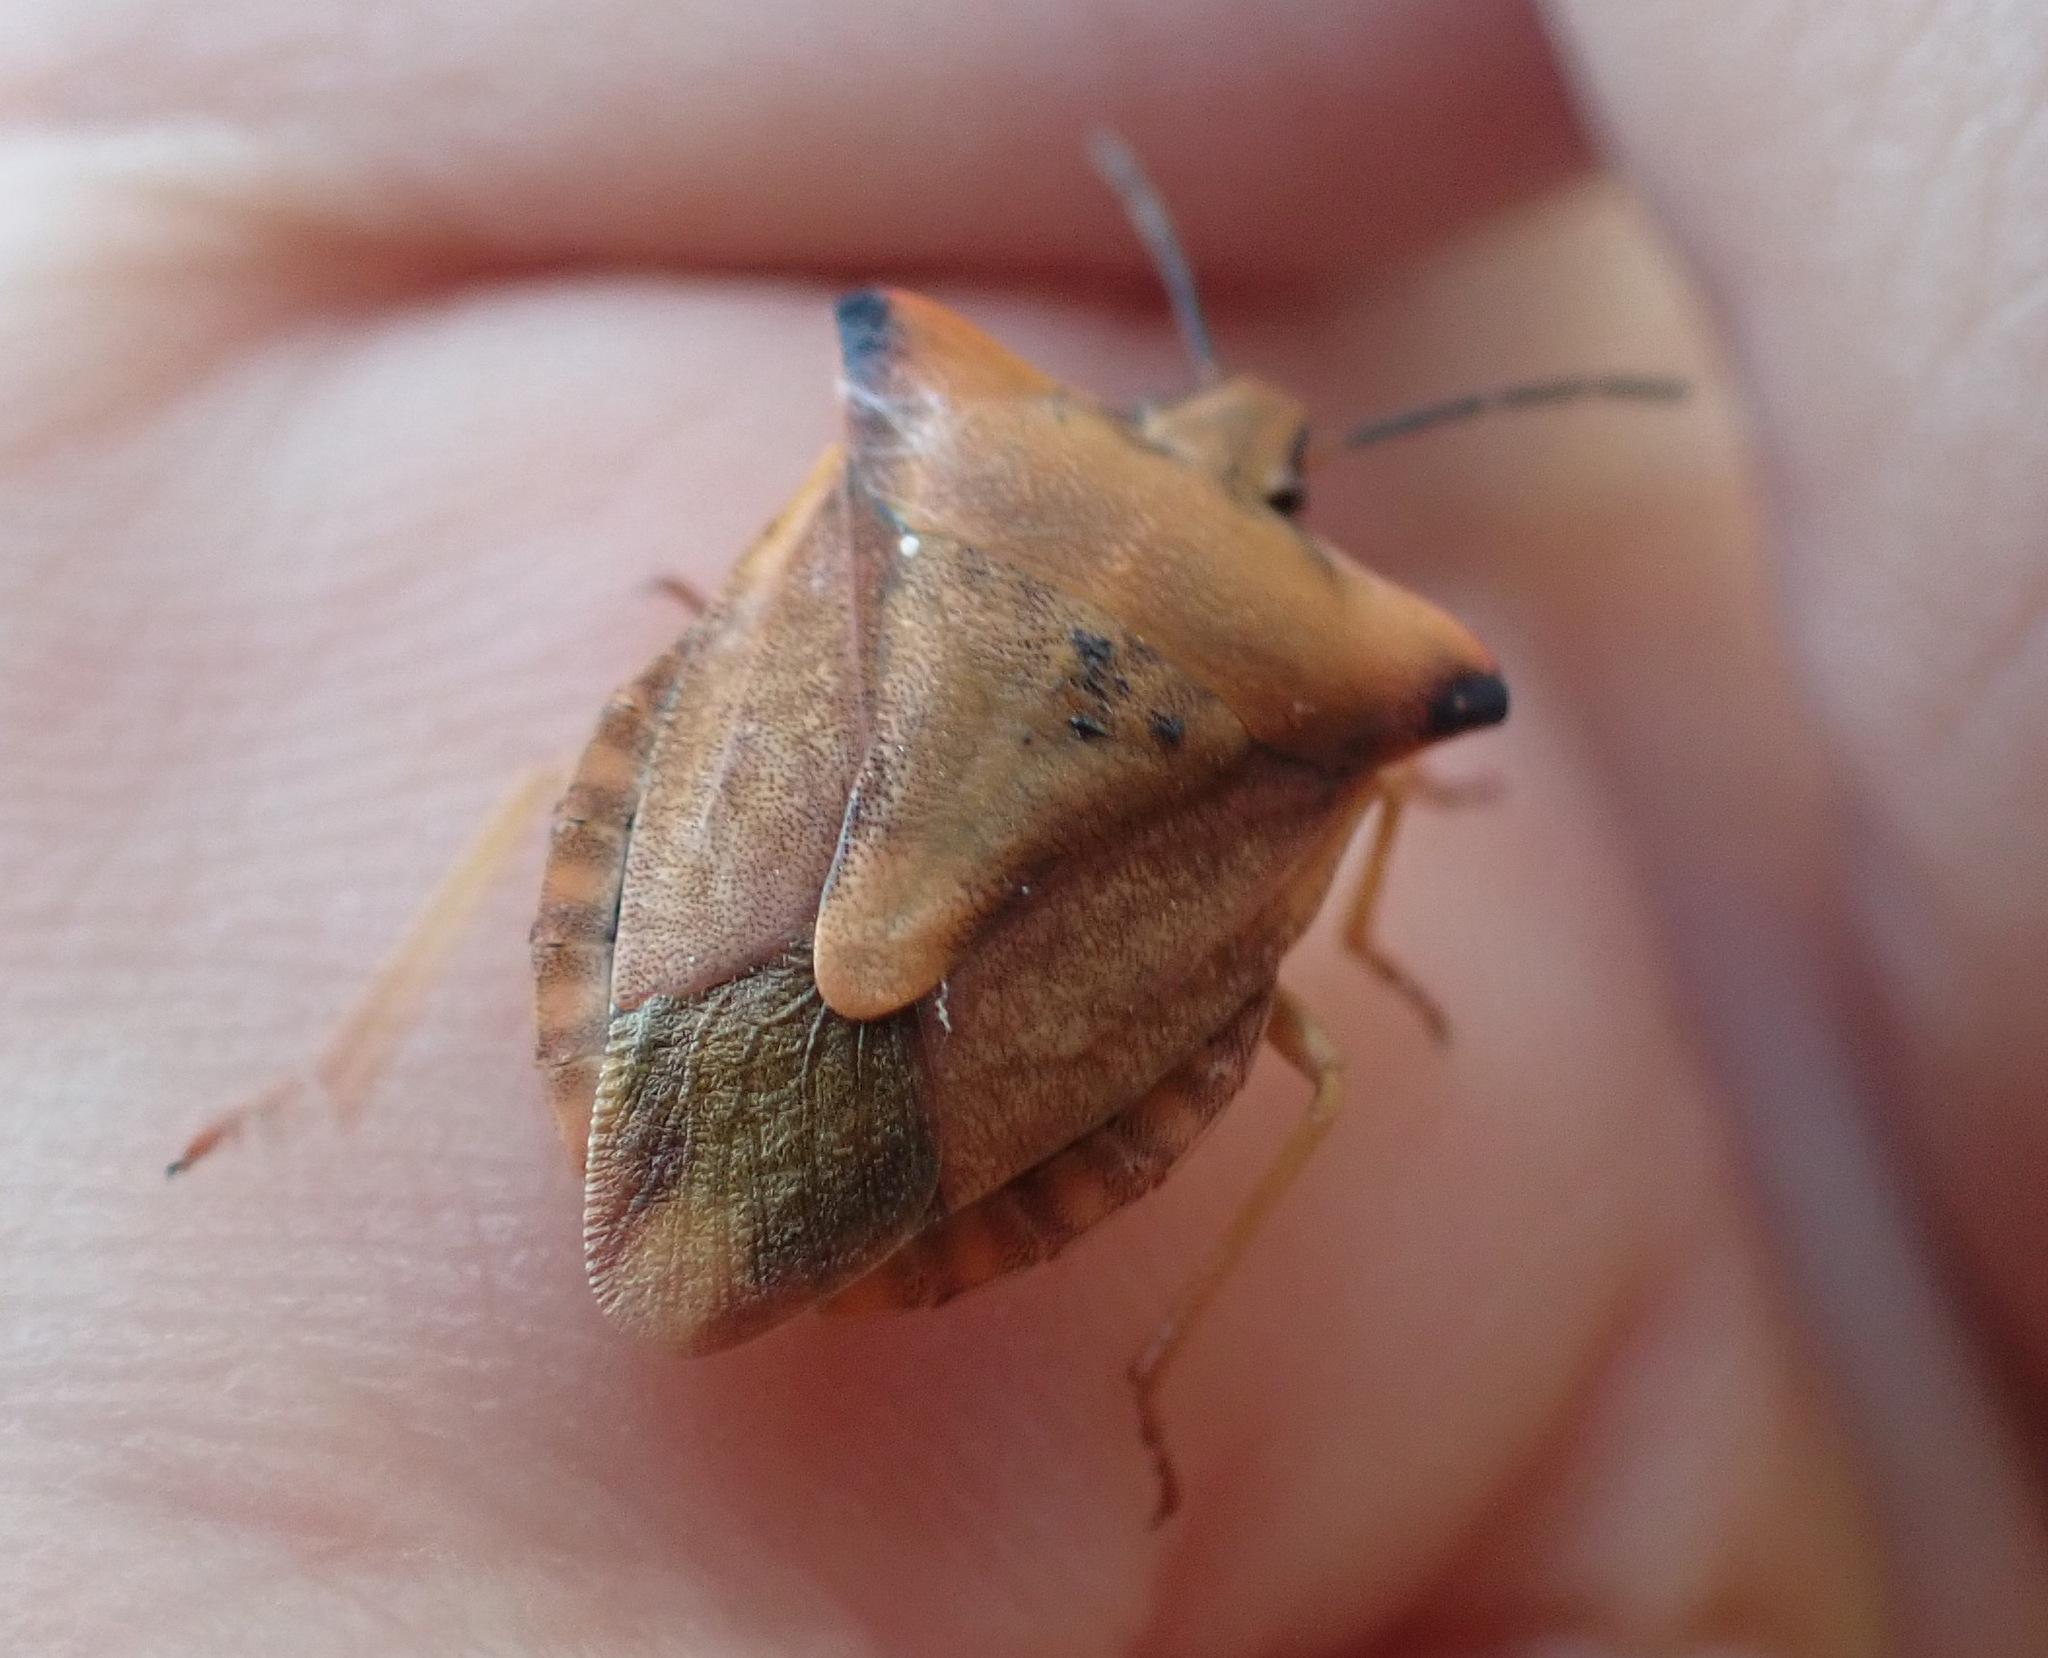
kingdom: Animalia
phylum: Arthropoda
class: Insecta
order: Hemiptera
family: Pentatomidae
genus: Carpocoris
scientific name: Carpocoris fuscispinus
